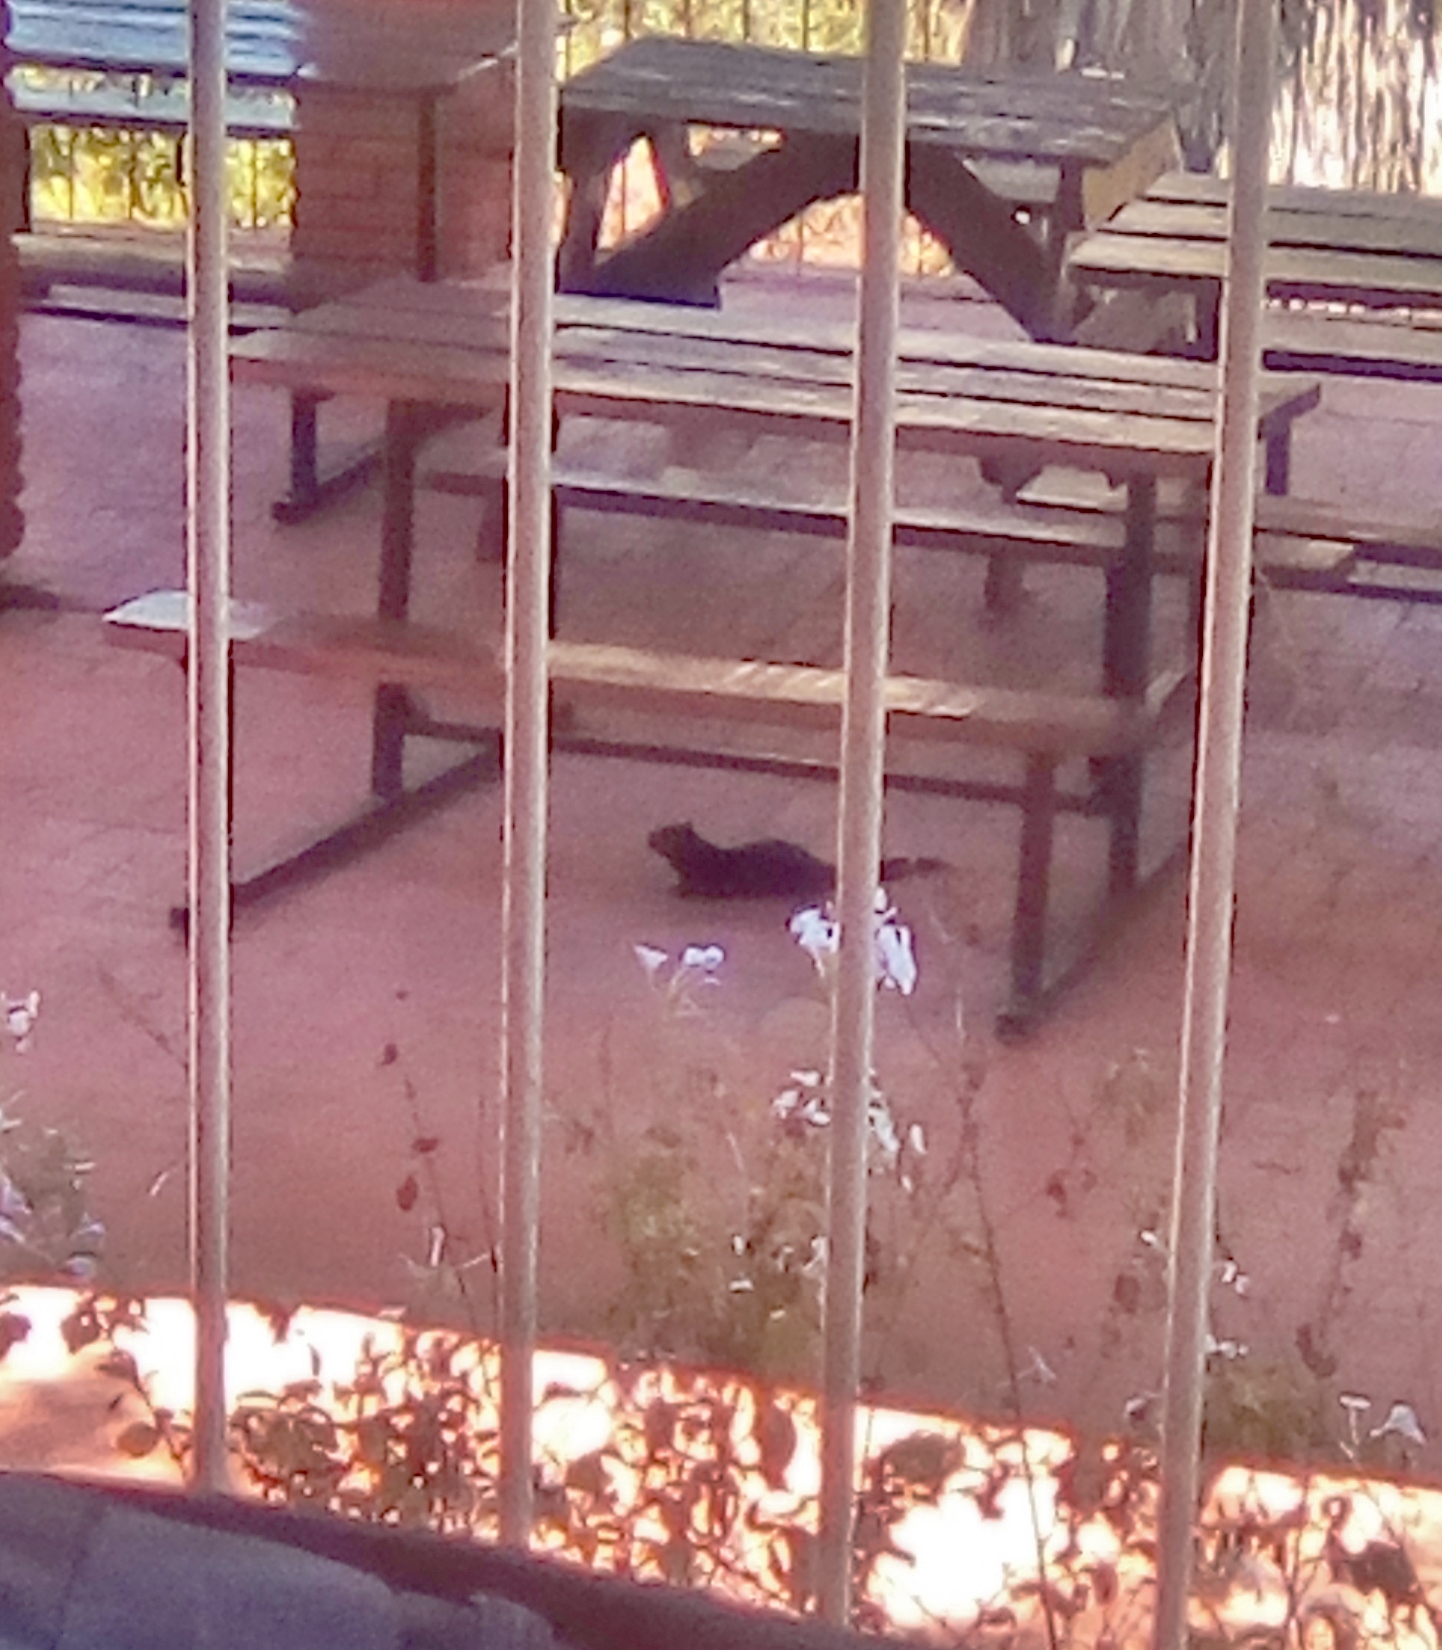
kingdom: Animalia
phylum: Chordata
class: Mammalia
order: Rodentia
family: Sciuridae
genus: Otospermophilus
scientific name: Otospermophilus variegatus
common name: Rock squirrel
